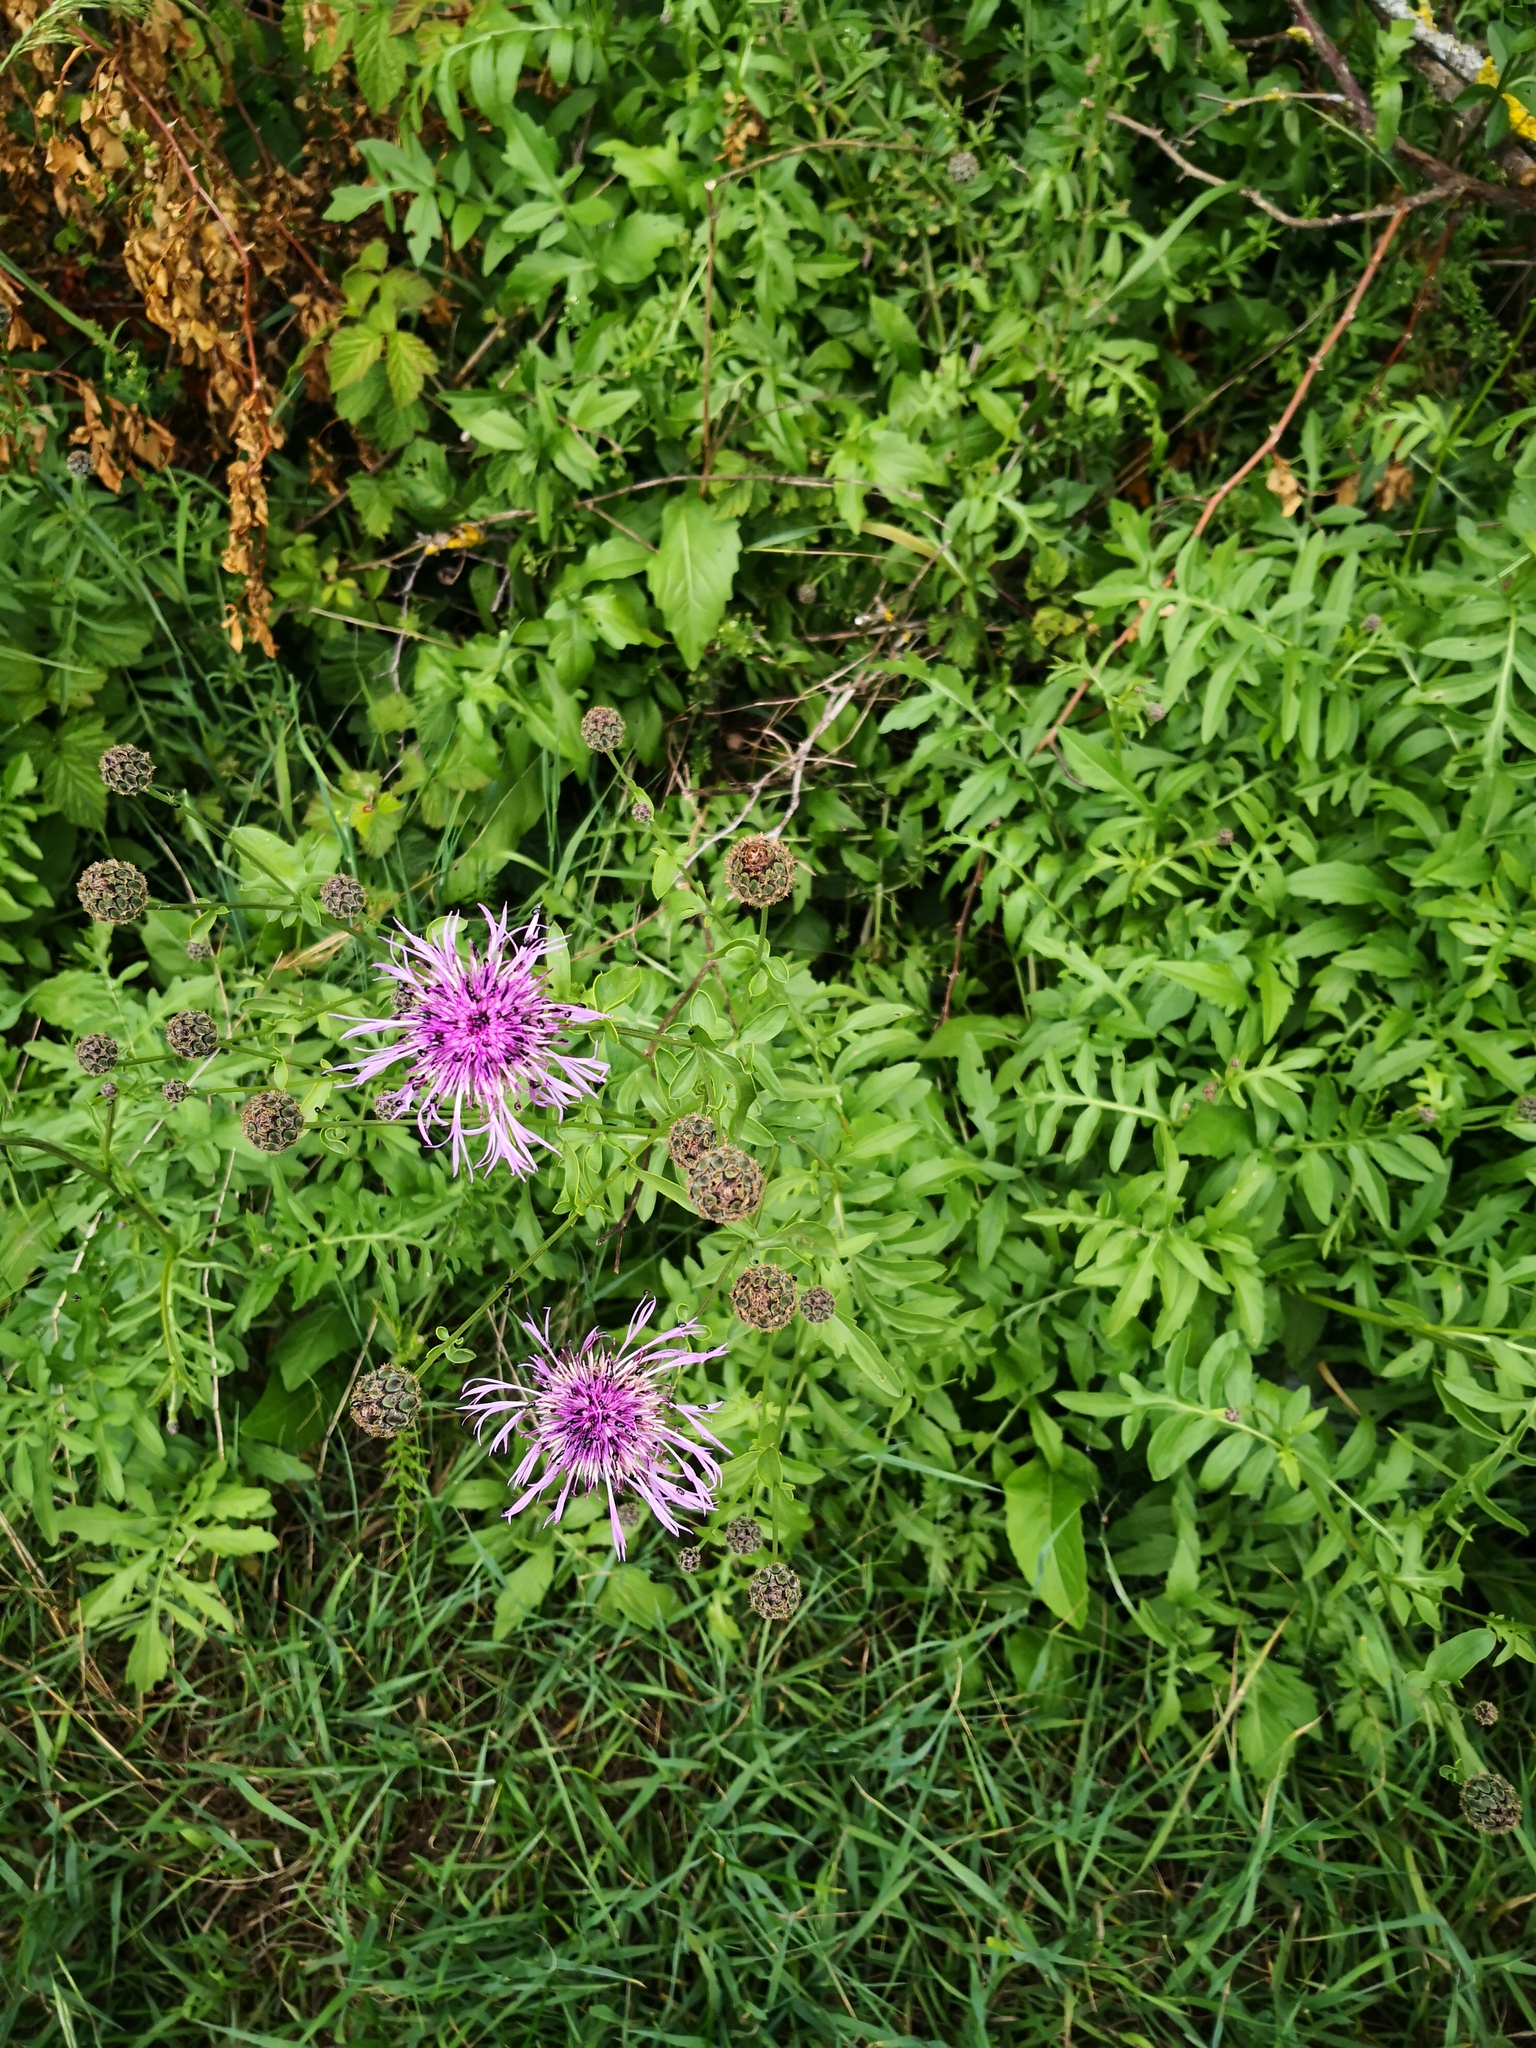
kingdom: Plantae
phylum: Tracheophyta
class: Magnoliopsida
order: Asterales
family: Asteraceae
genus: Centaurea
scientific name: Centaurea scabiosa
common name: Greater knapweed
